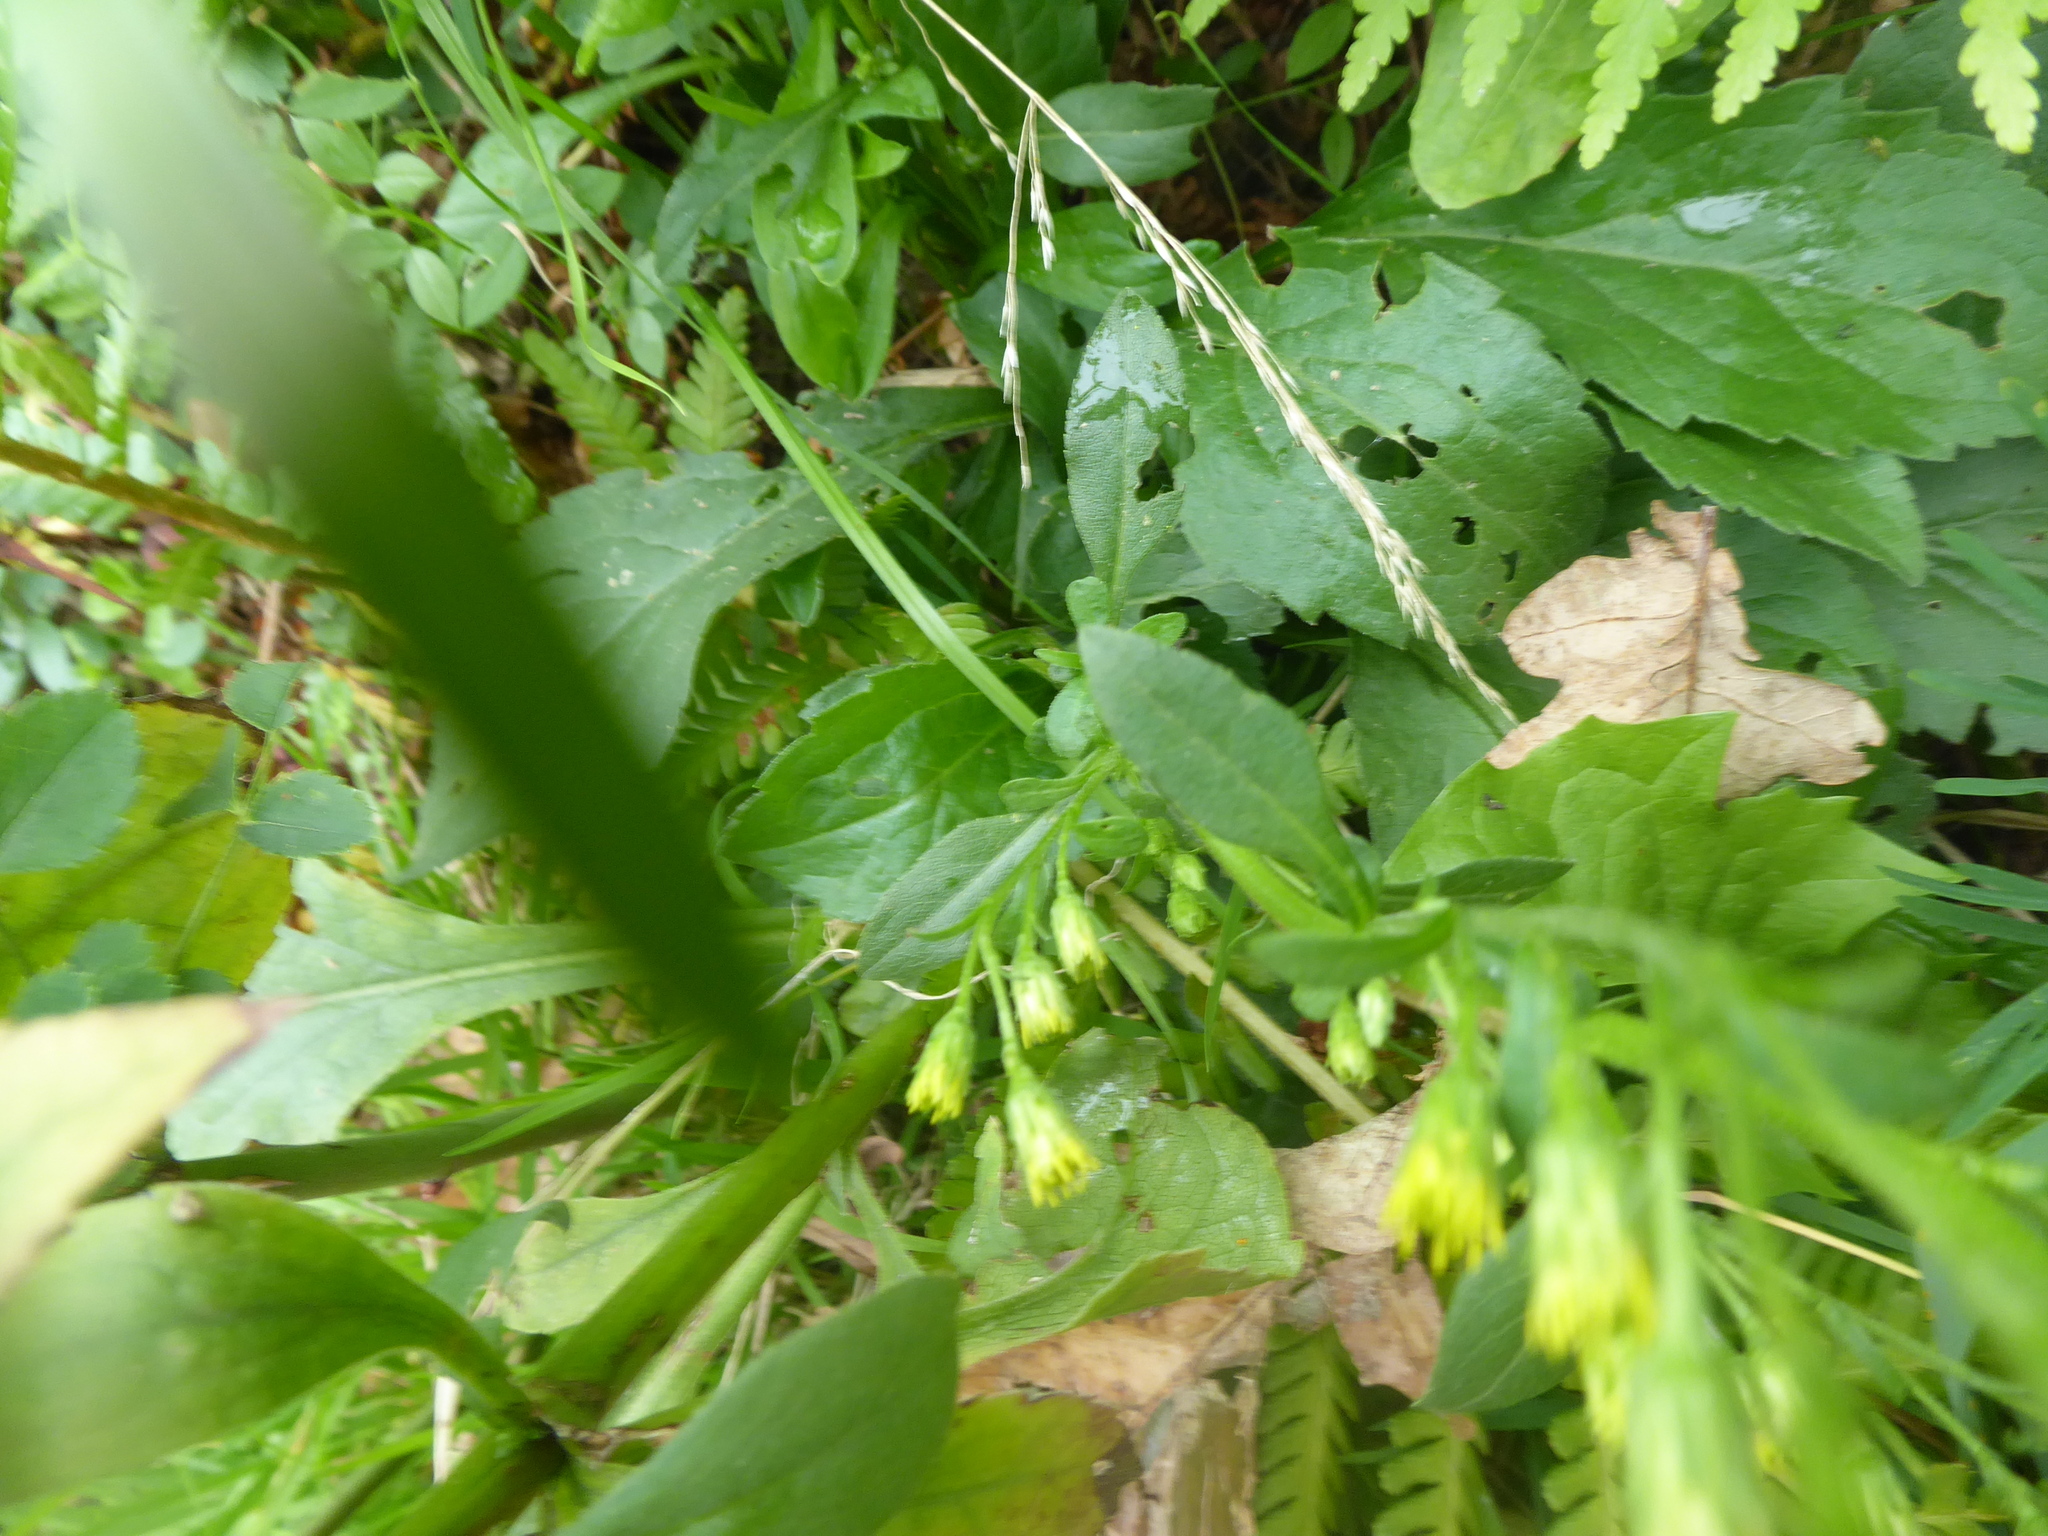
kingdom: Plantae
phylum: Tracheophyta
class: Magnoliopsida
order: Asterales
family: Asteraceae
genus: Solidago
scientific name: Solidago virgaurea
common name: Goldenrod
